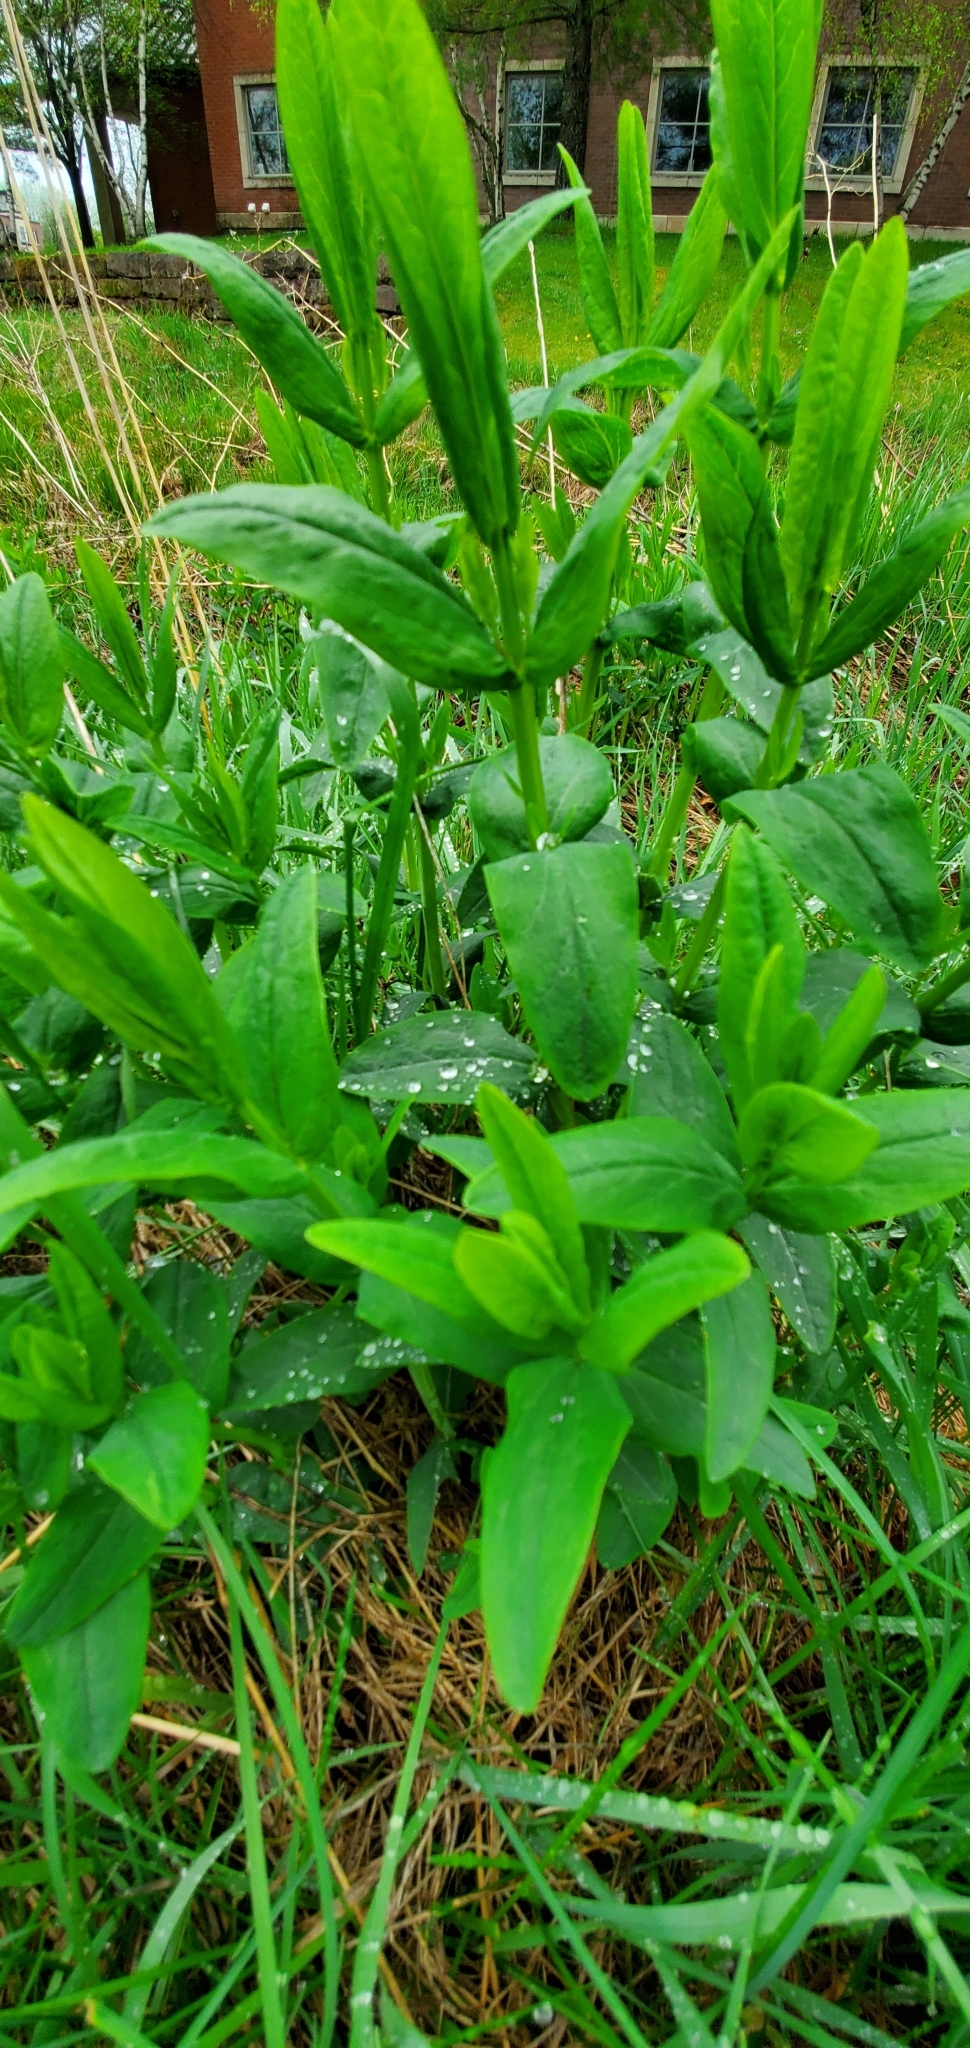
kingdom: Plantae
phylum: Tracheophyta
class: Magnoliopsida
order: Malpighiales
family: Hypericaceae
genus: Hypericum
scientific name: Hypericum ascyron
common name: Giant st. john's-wort
